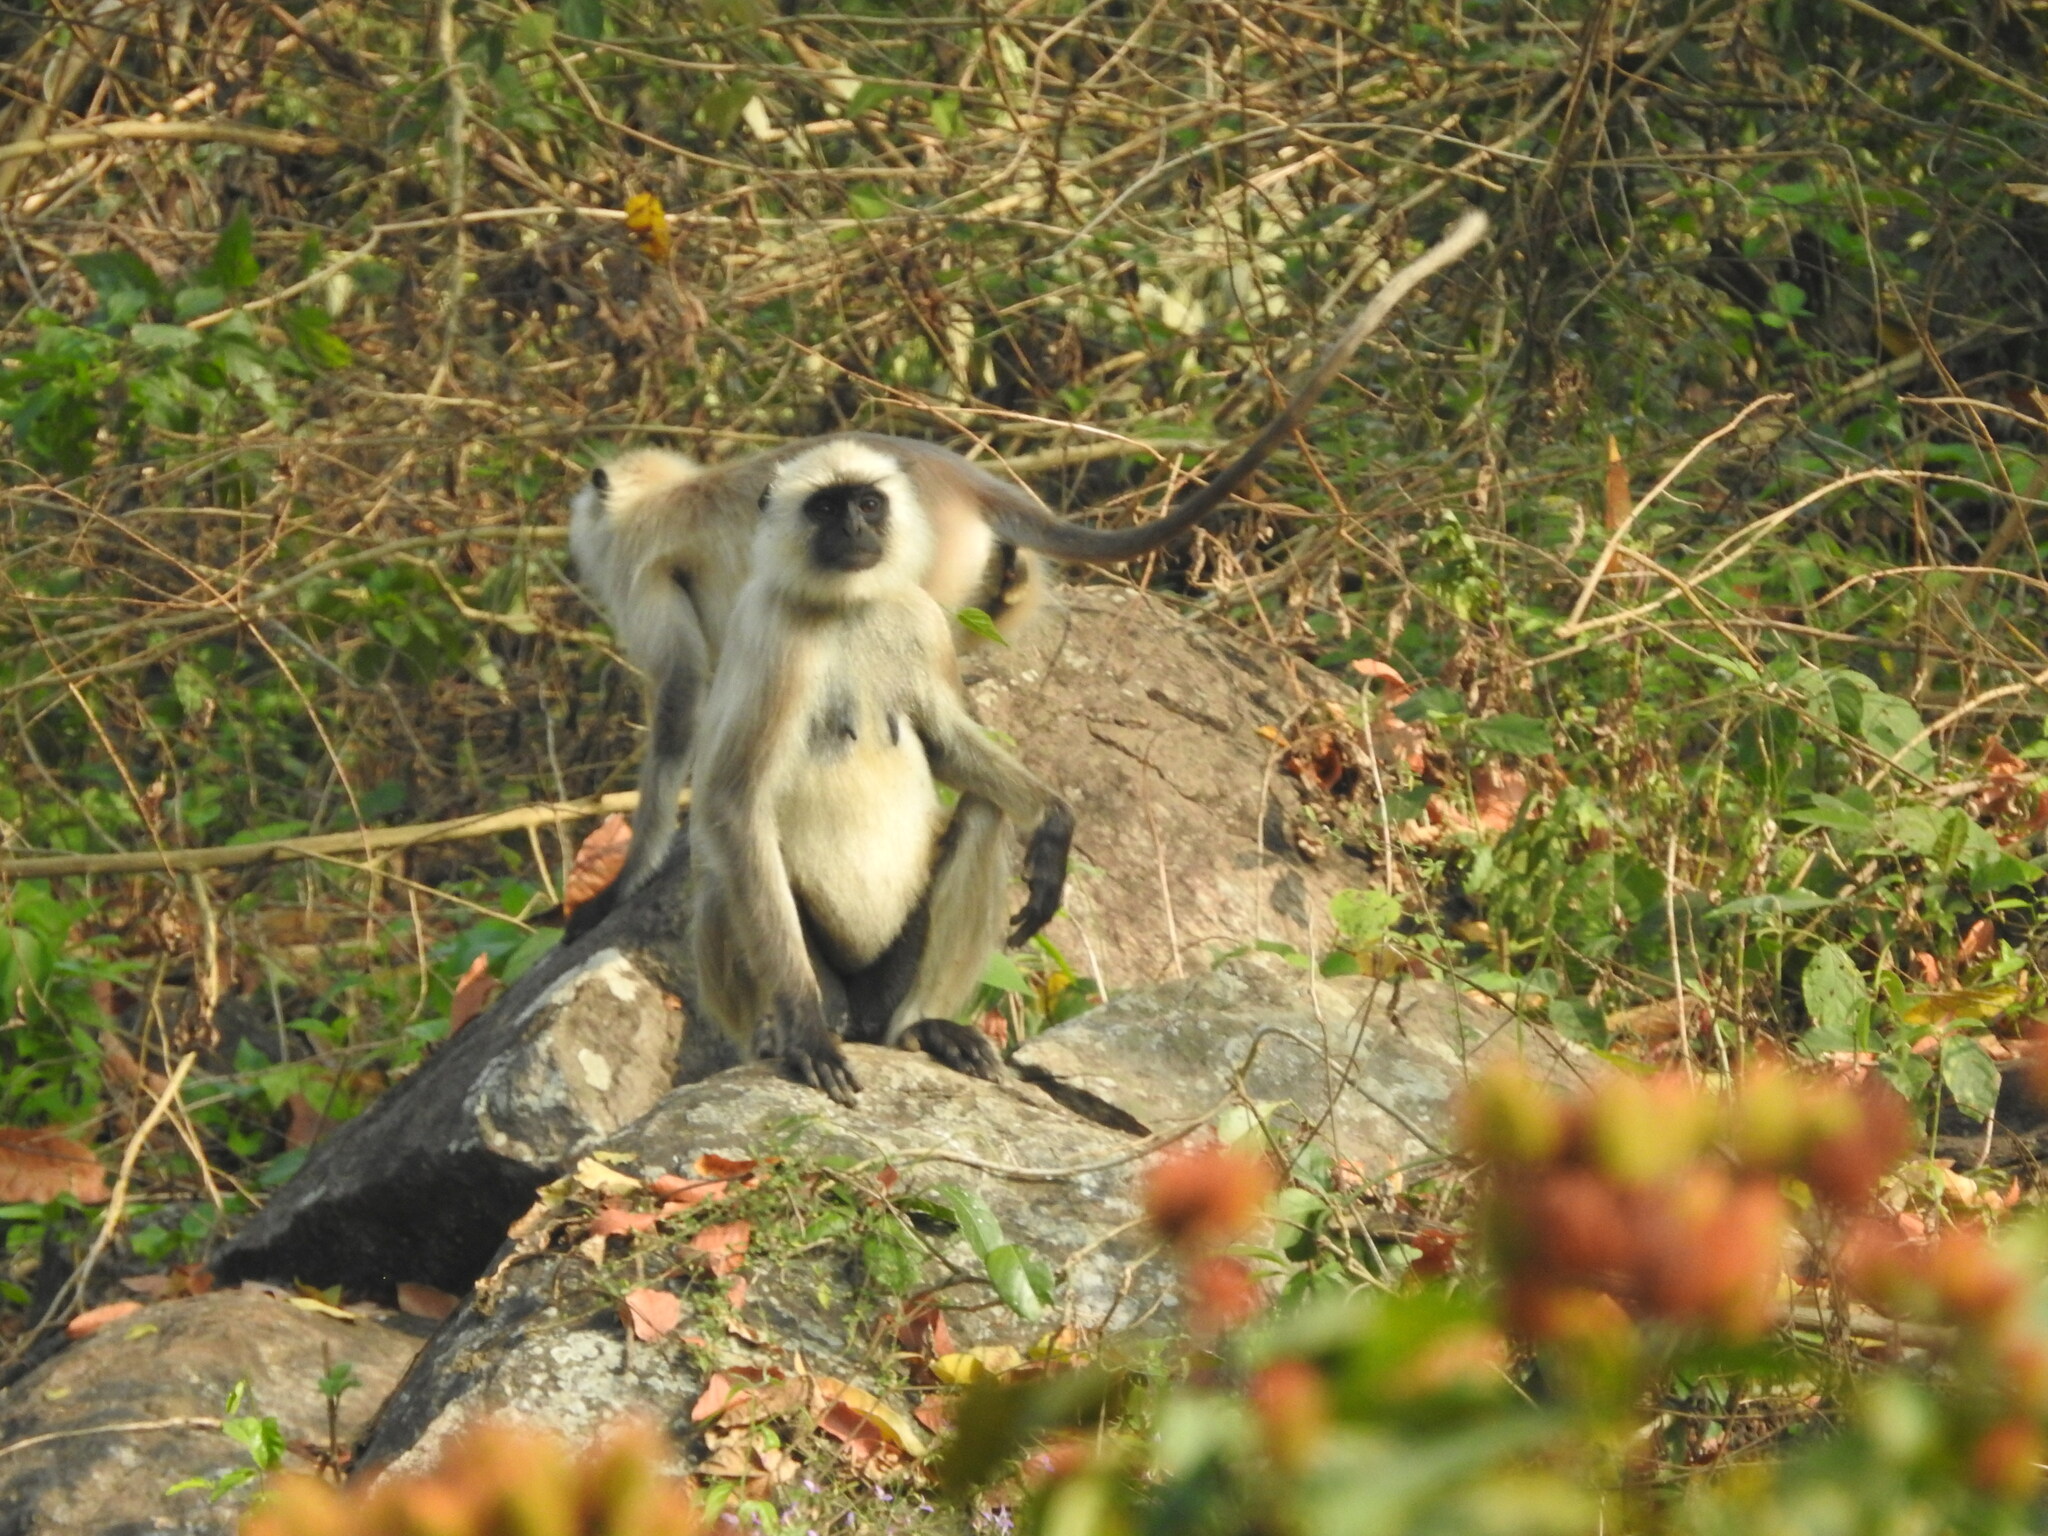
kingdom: Animalia
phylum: Chordata
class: Mammalia
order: Primates
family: Cercopithecidae
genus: Semnopithecus
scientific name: Semnopithecus entellus
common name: Northern plains gray langur
